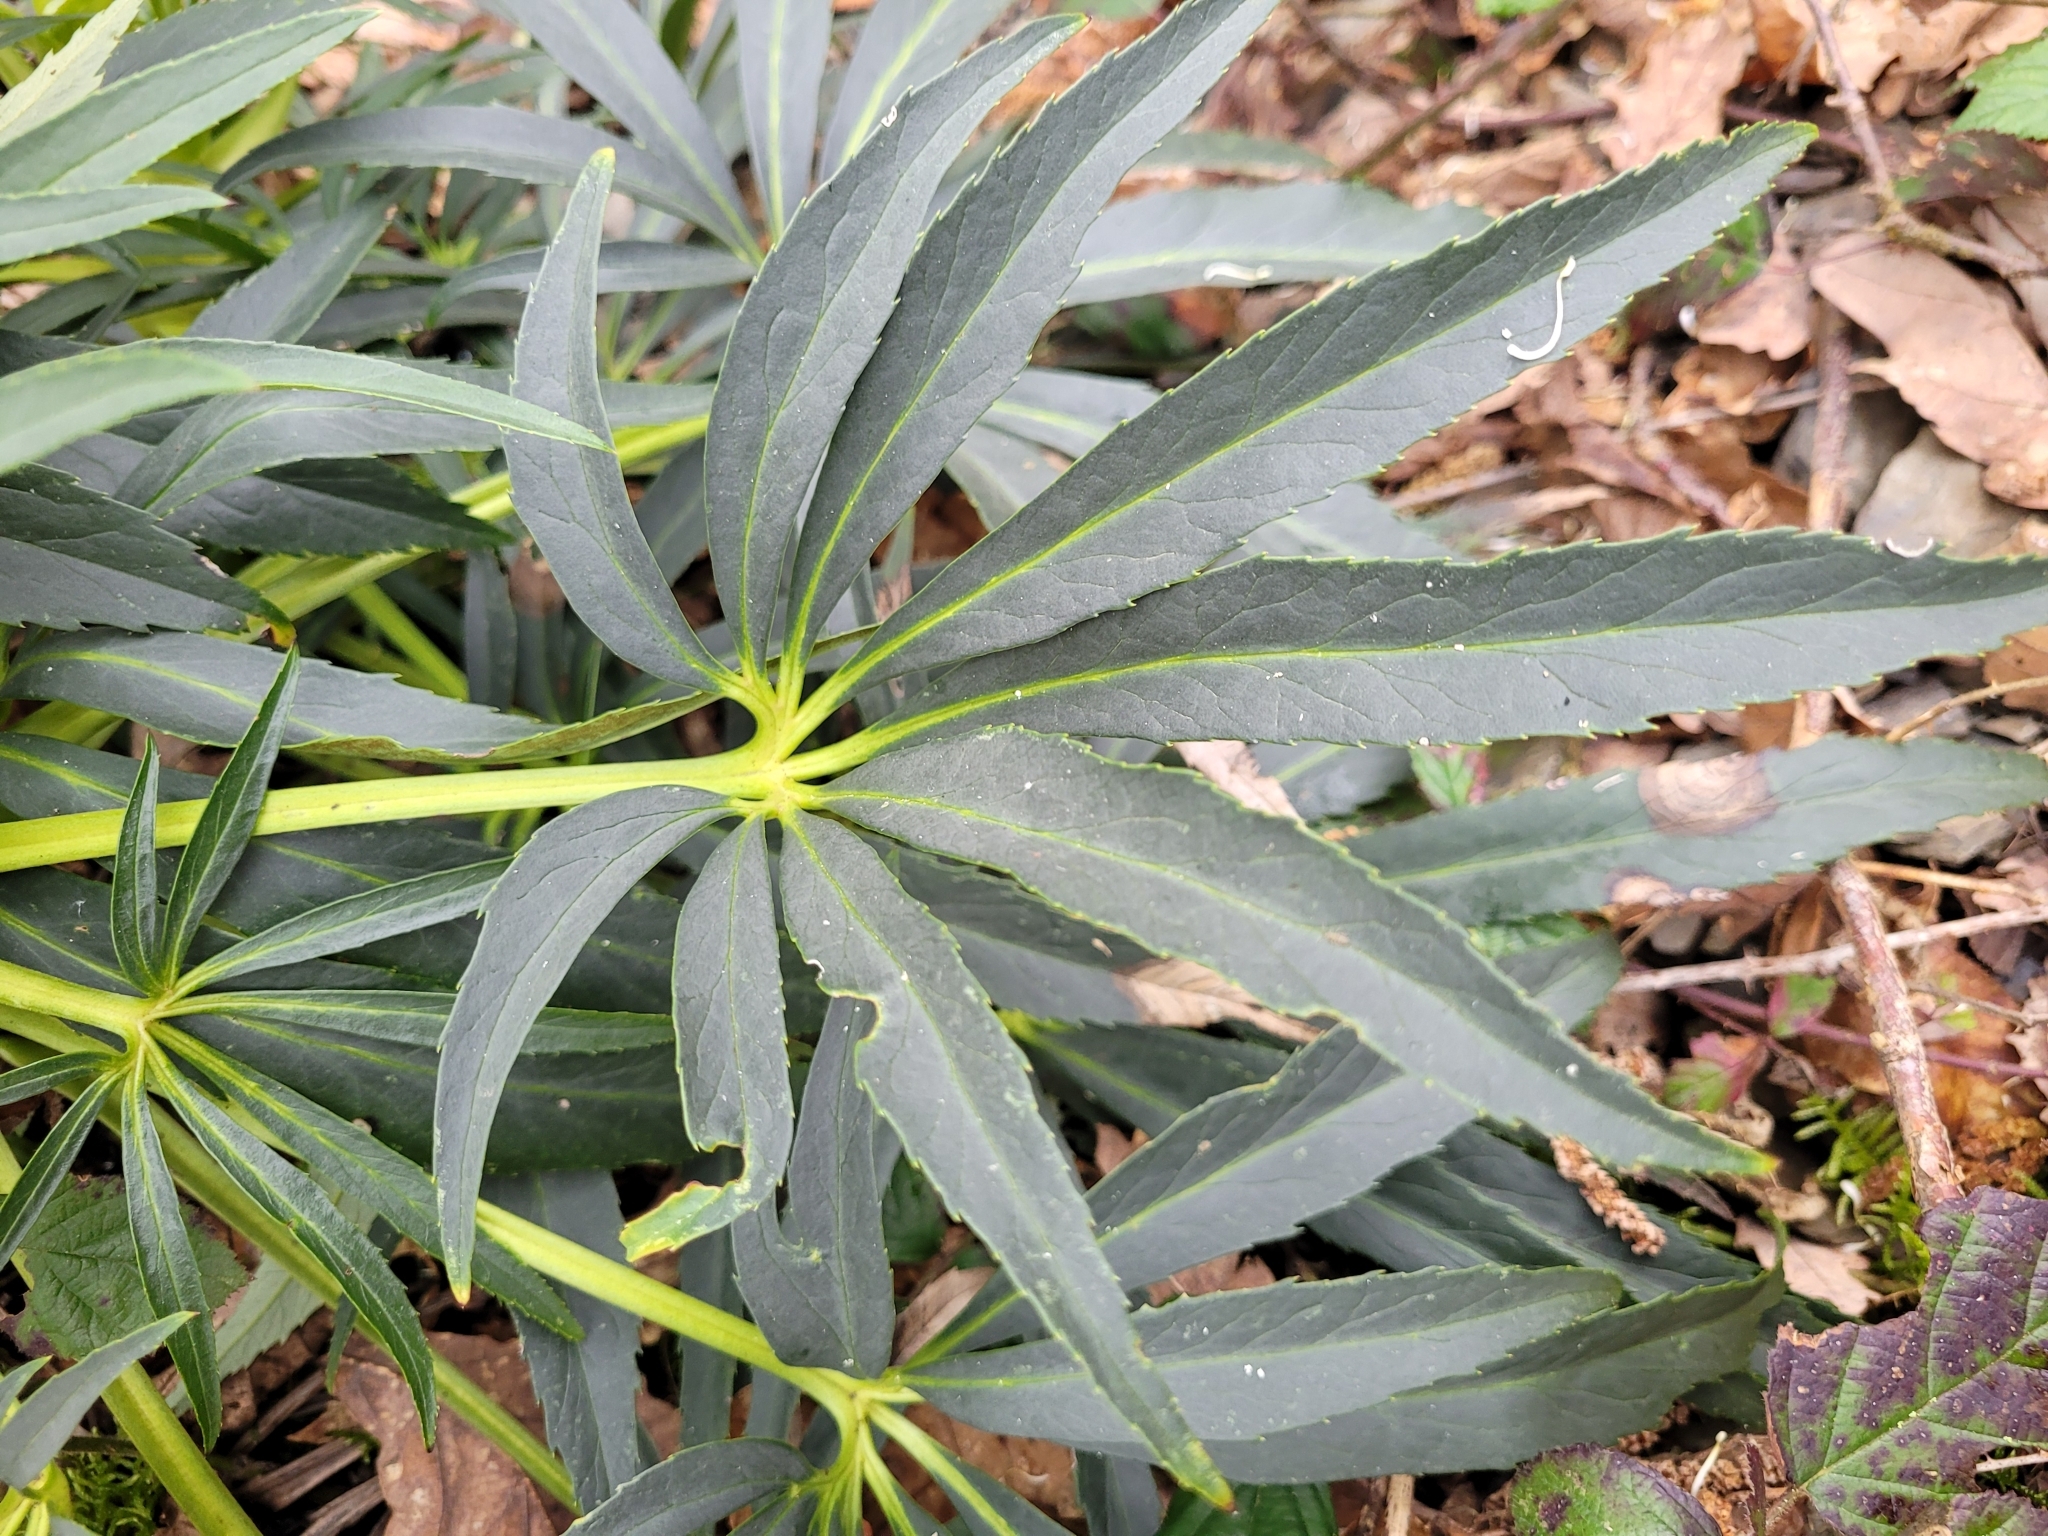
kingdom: Plantae
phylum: Tracheophyta
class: Magnoliopsida
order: Ranunculales
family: Ranunculaceae
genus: Helleborus
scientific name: Helleborus foetidus
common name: Stinking hellebore
